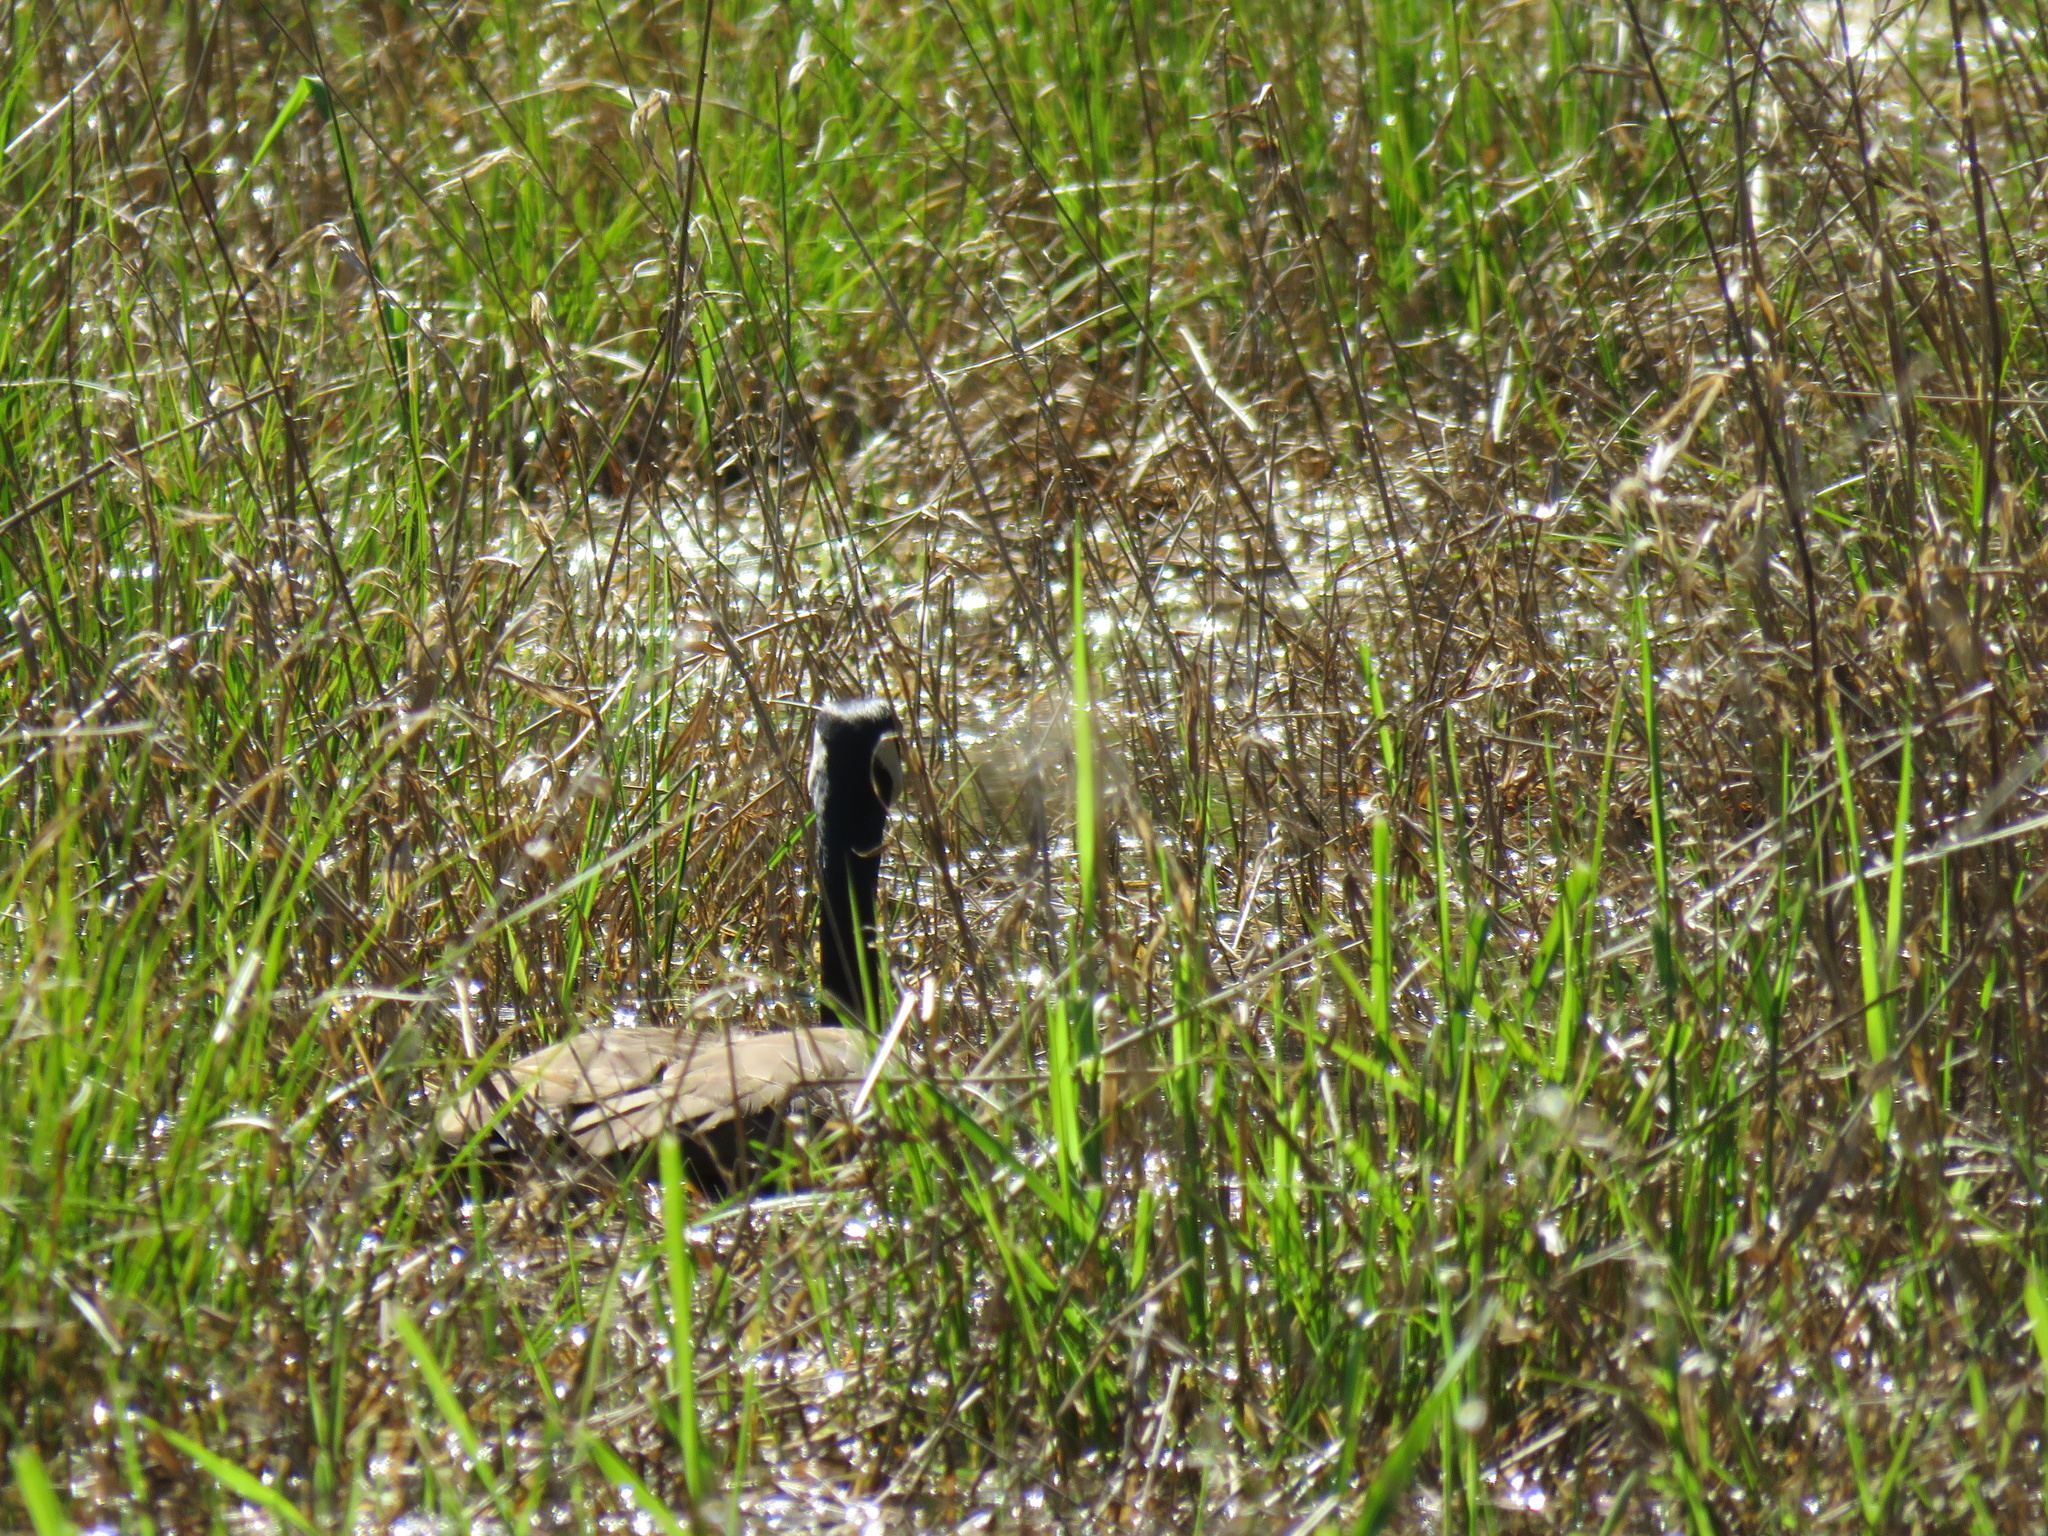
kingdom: Animalia
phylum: Chordata
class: Aves
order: Anseriformes
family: Anatidae
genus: Branta
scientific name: Branta canadensis
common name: Canada goose
